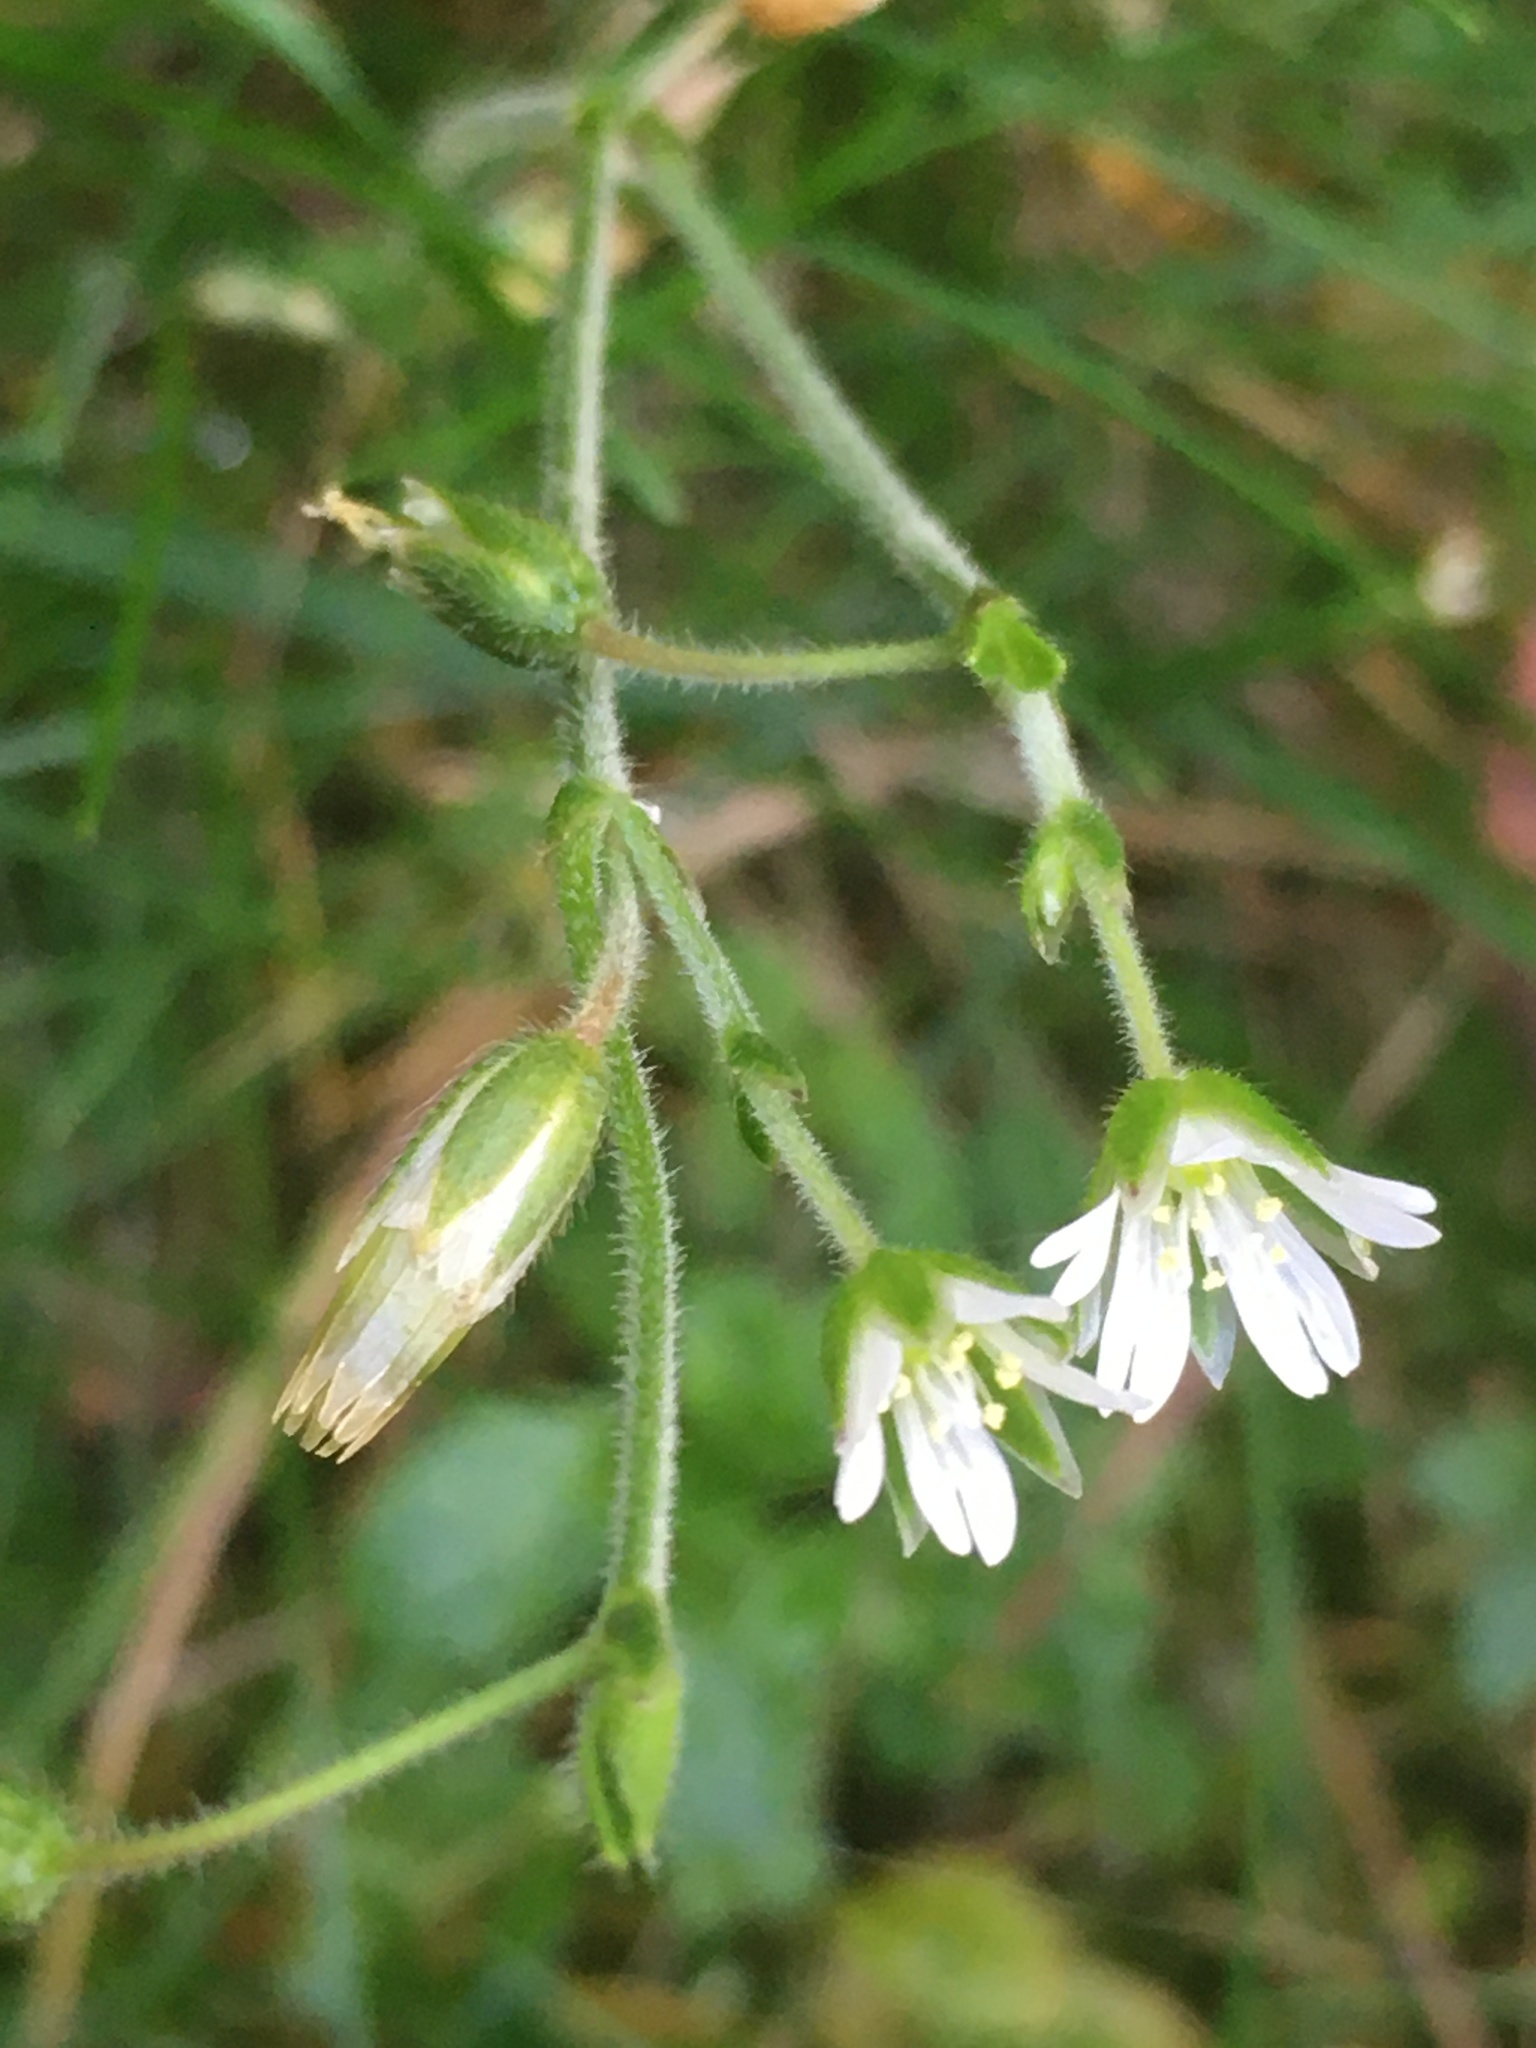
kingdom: Plantae
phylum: Tracheophyta
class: Magnoliopsida
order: Caryophyllales
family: Caryophyllaceae
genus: Cerastium
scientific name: Cerastium holosteoides
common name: Big chickweed
